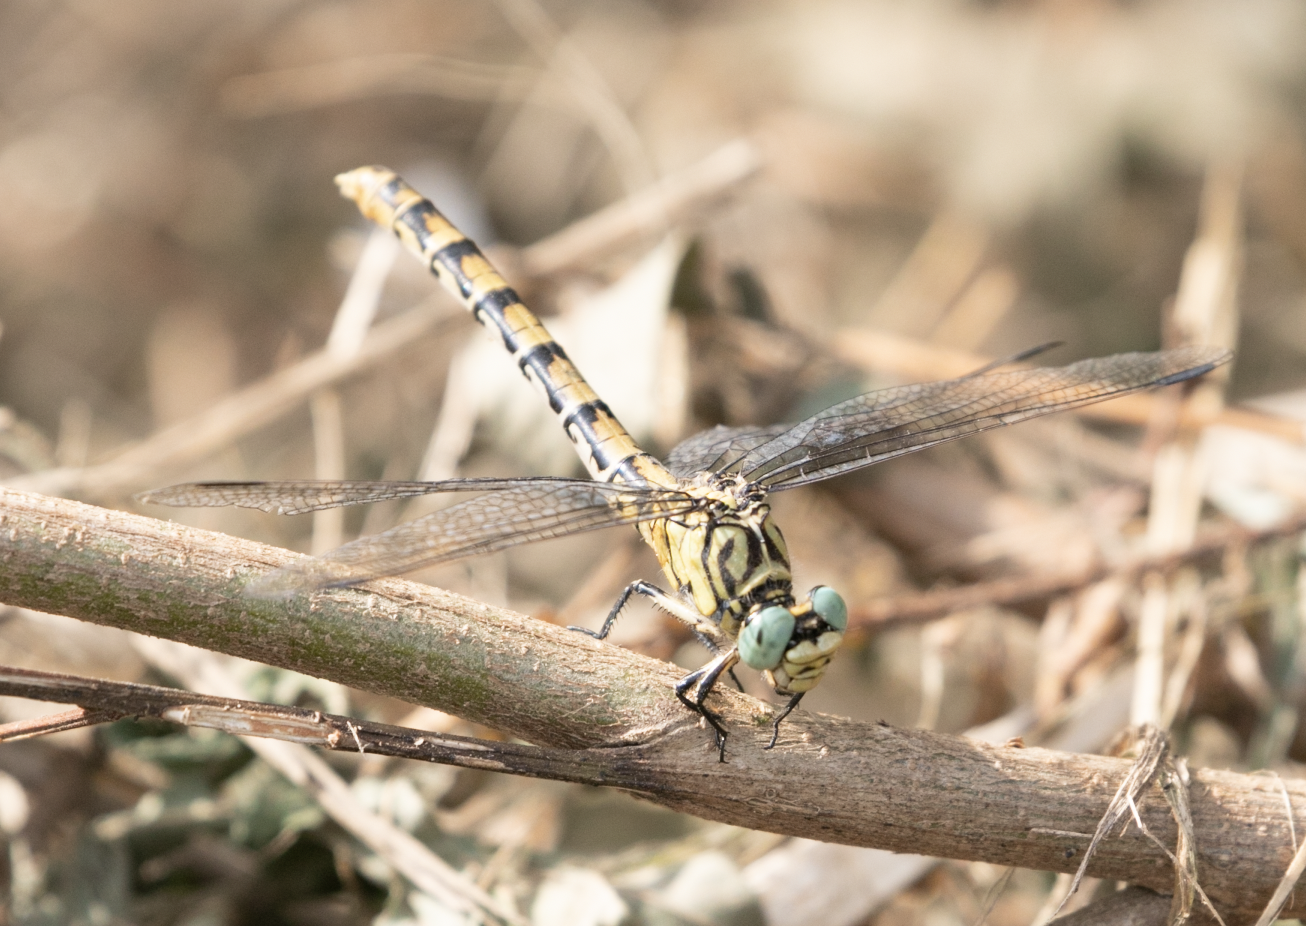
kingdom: Animalia
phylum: Arthropoda
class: Insecta
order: Odonata
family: Gomphidae
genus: Onychogomphus
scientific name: Onychogomphus forcipatus
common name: Small pincertail
